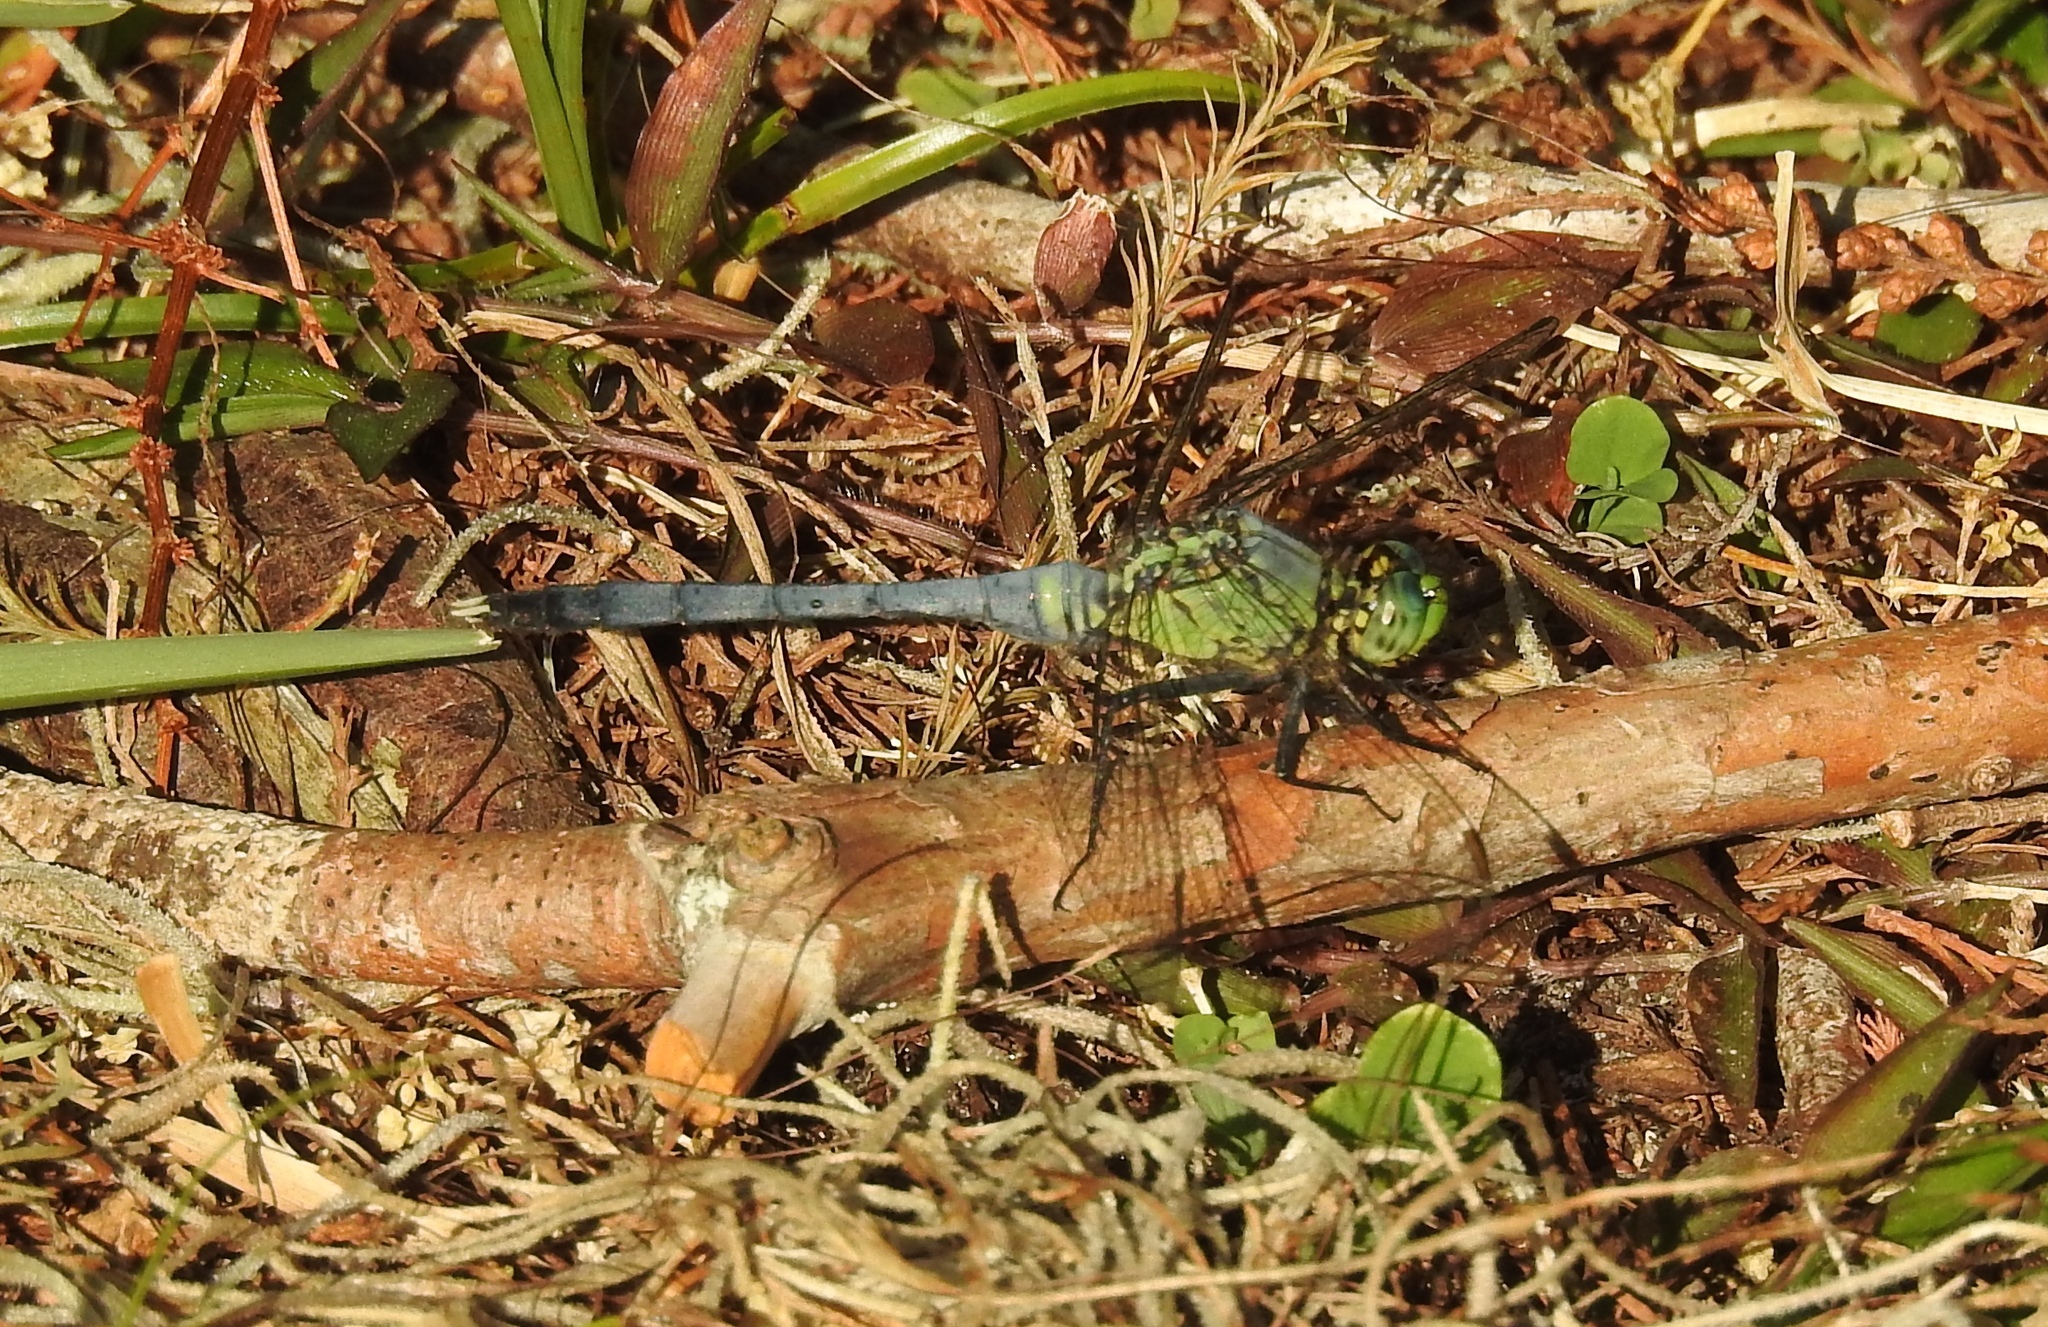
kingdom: Animalia
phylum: Arthropoda
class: Insecta
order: Odonata
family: Libellulidae
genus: Erythemis
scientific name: Erythemis simplicicollis
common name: Eastern pondhawk
